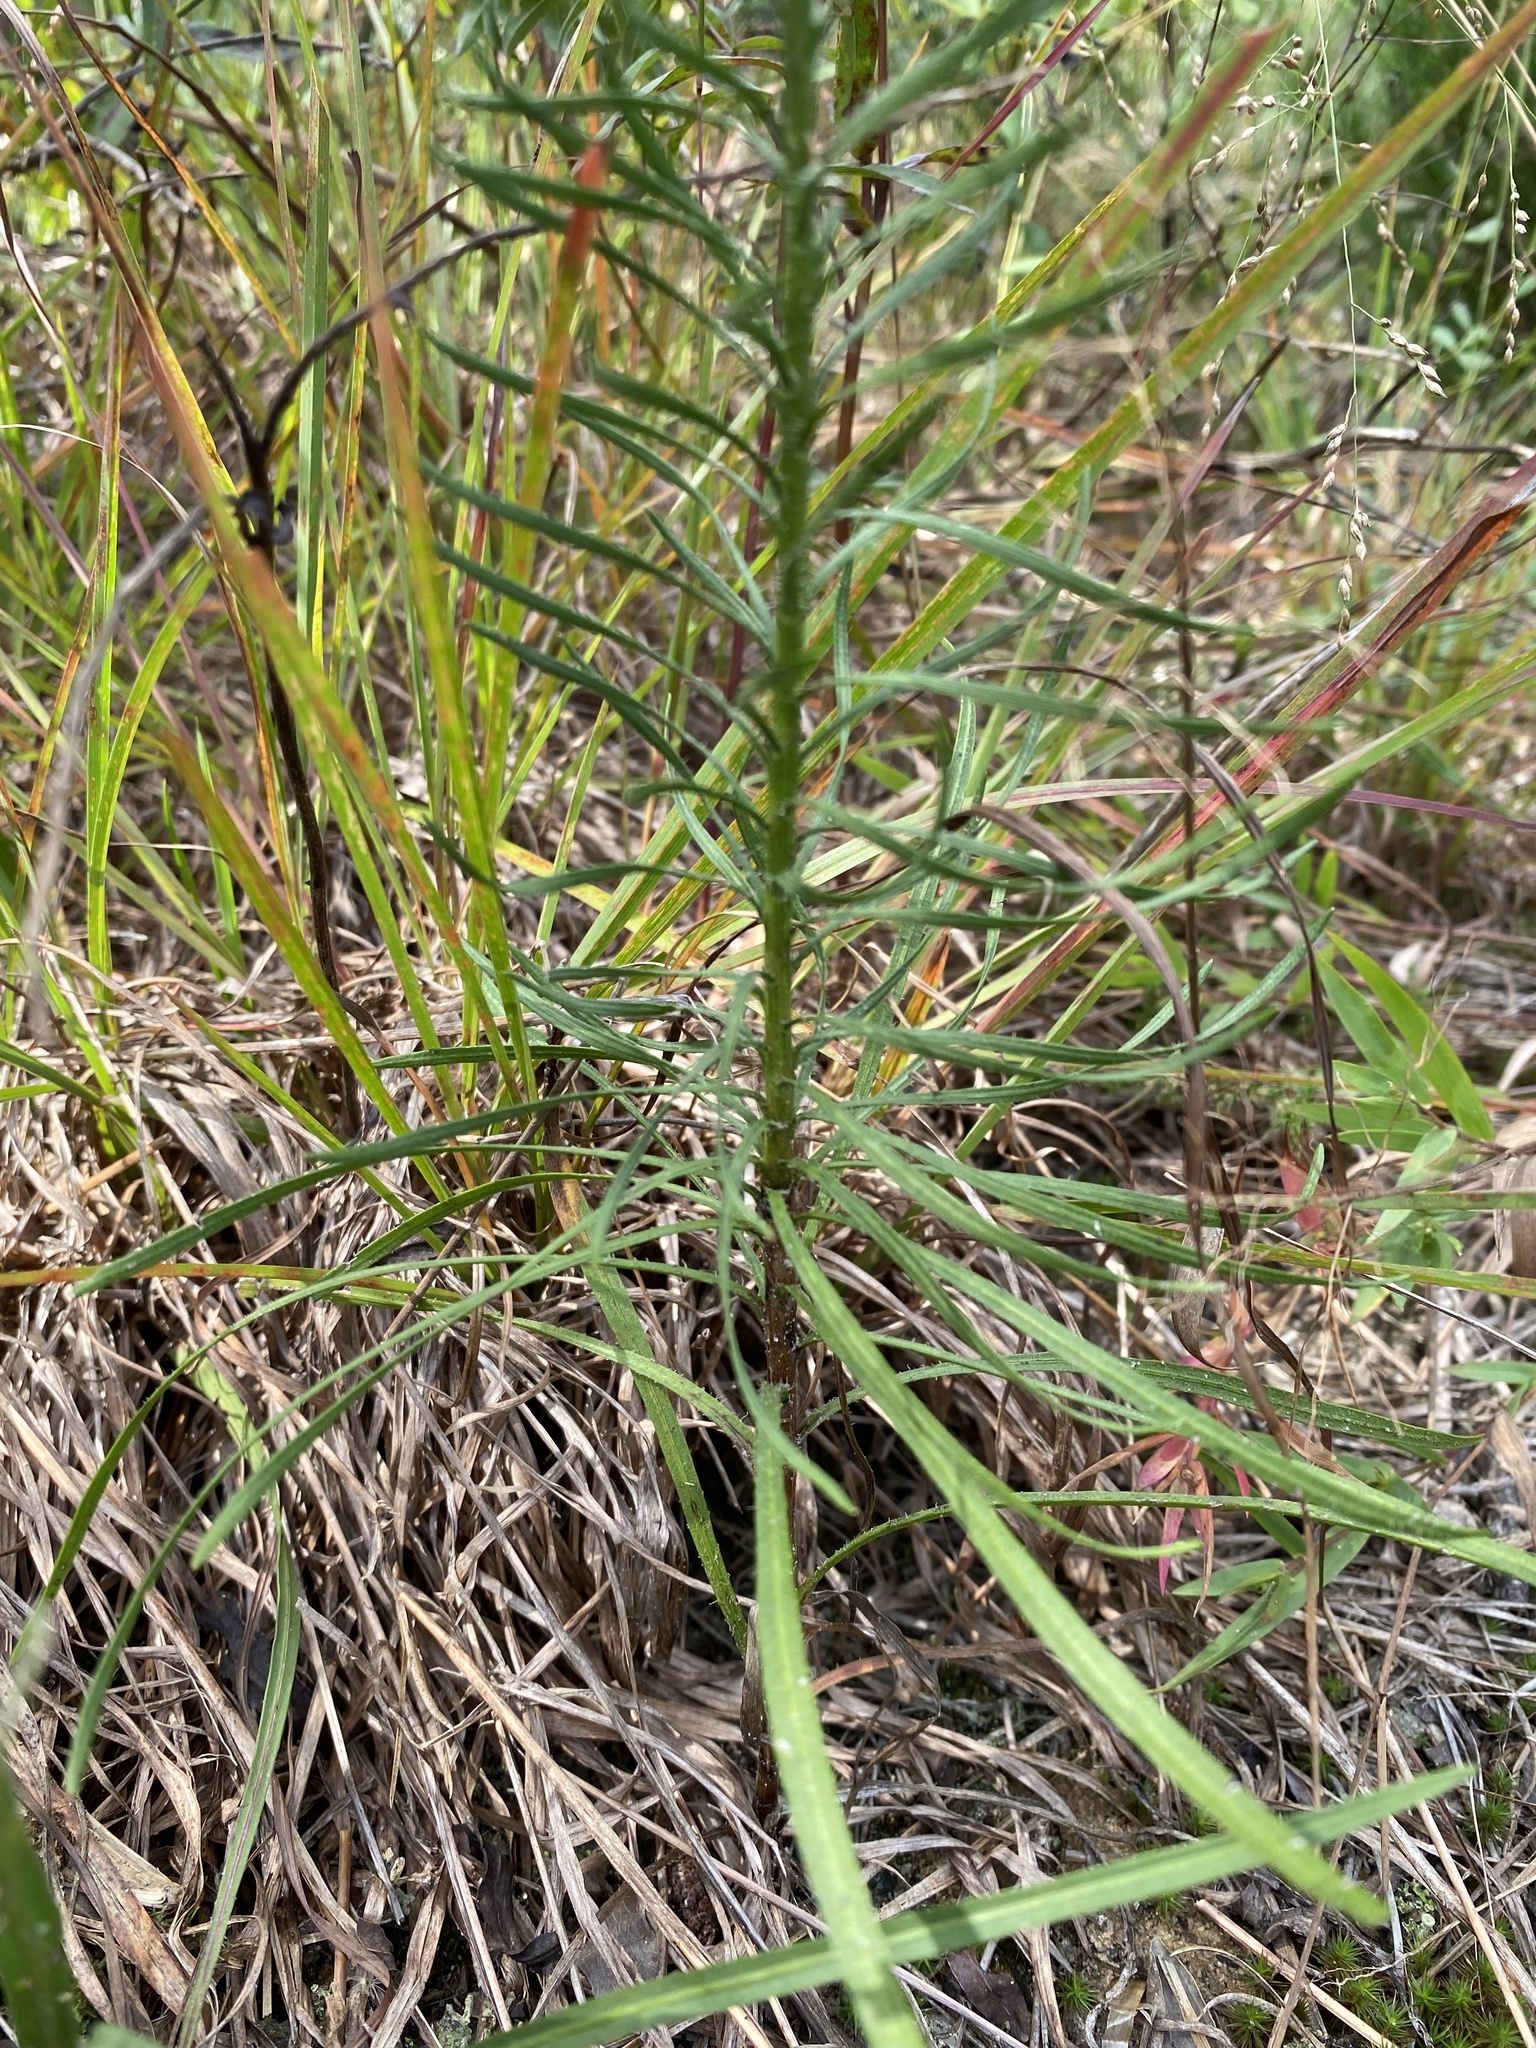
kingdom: Plantae
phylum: Tracheophyta
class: Magnoliopsida
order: Asterales
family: Asteraceae
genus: Liatris
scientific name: Liatris pilosa
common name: Grass-leaf gayfeather
